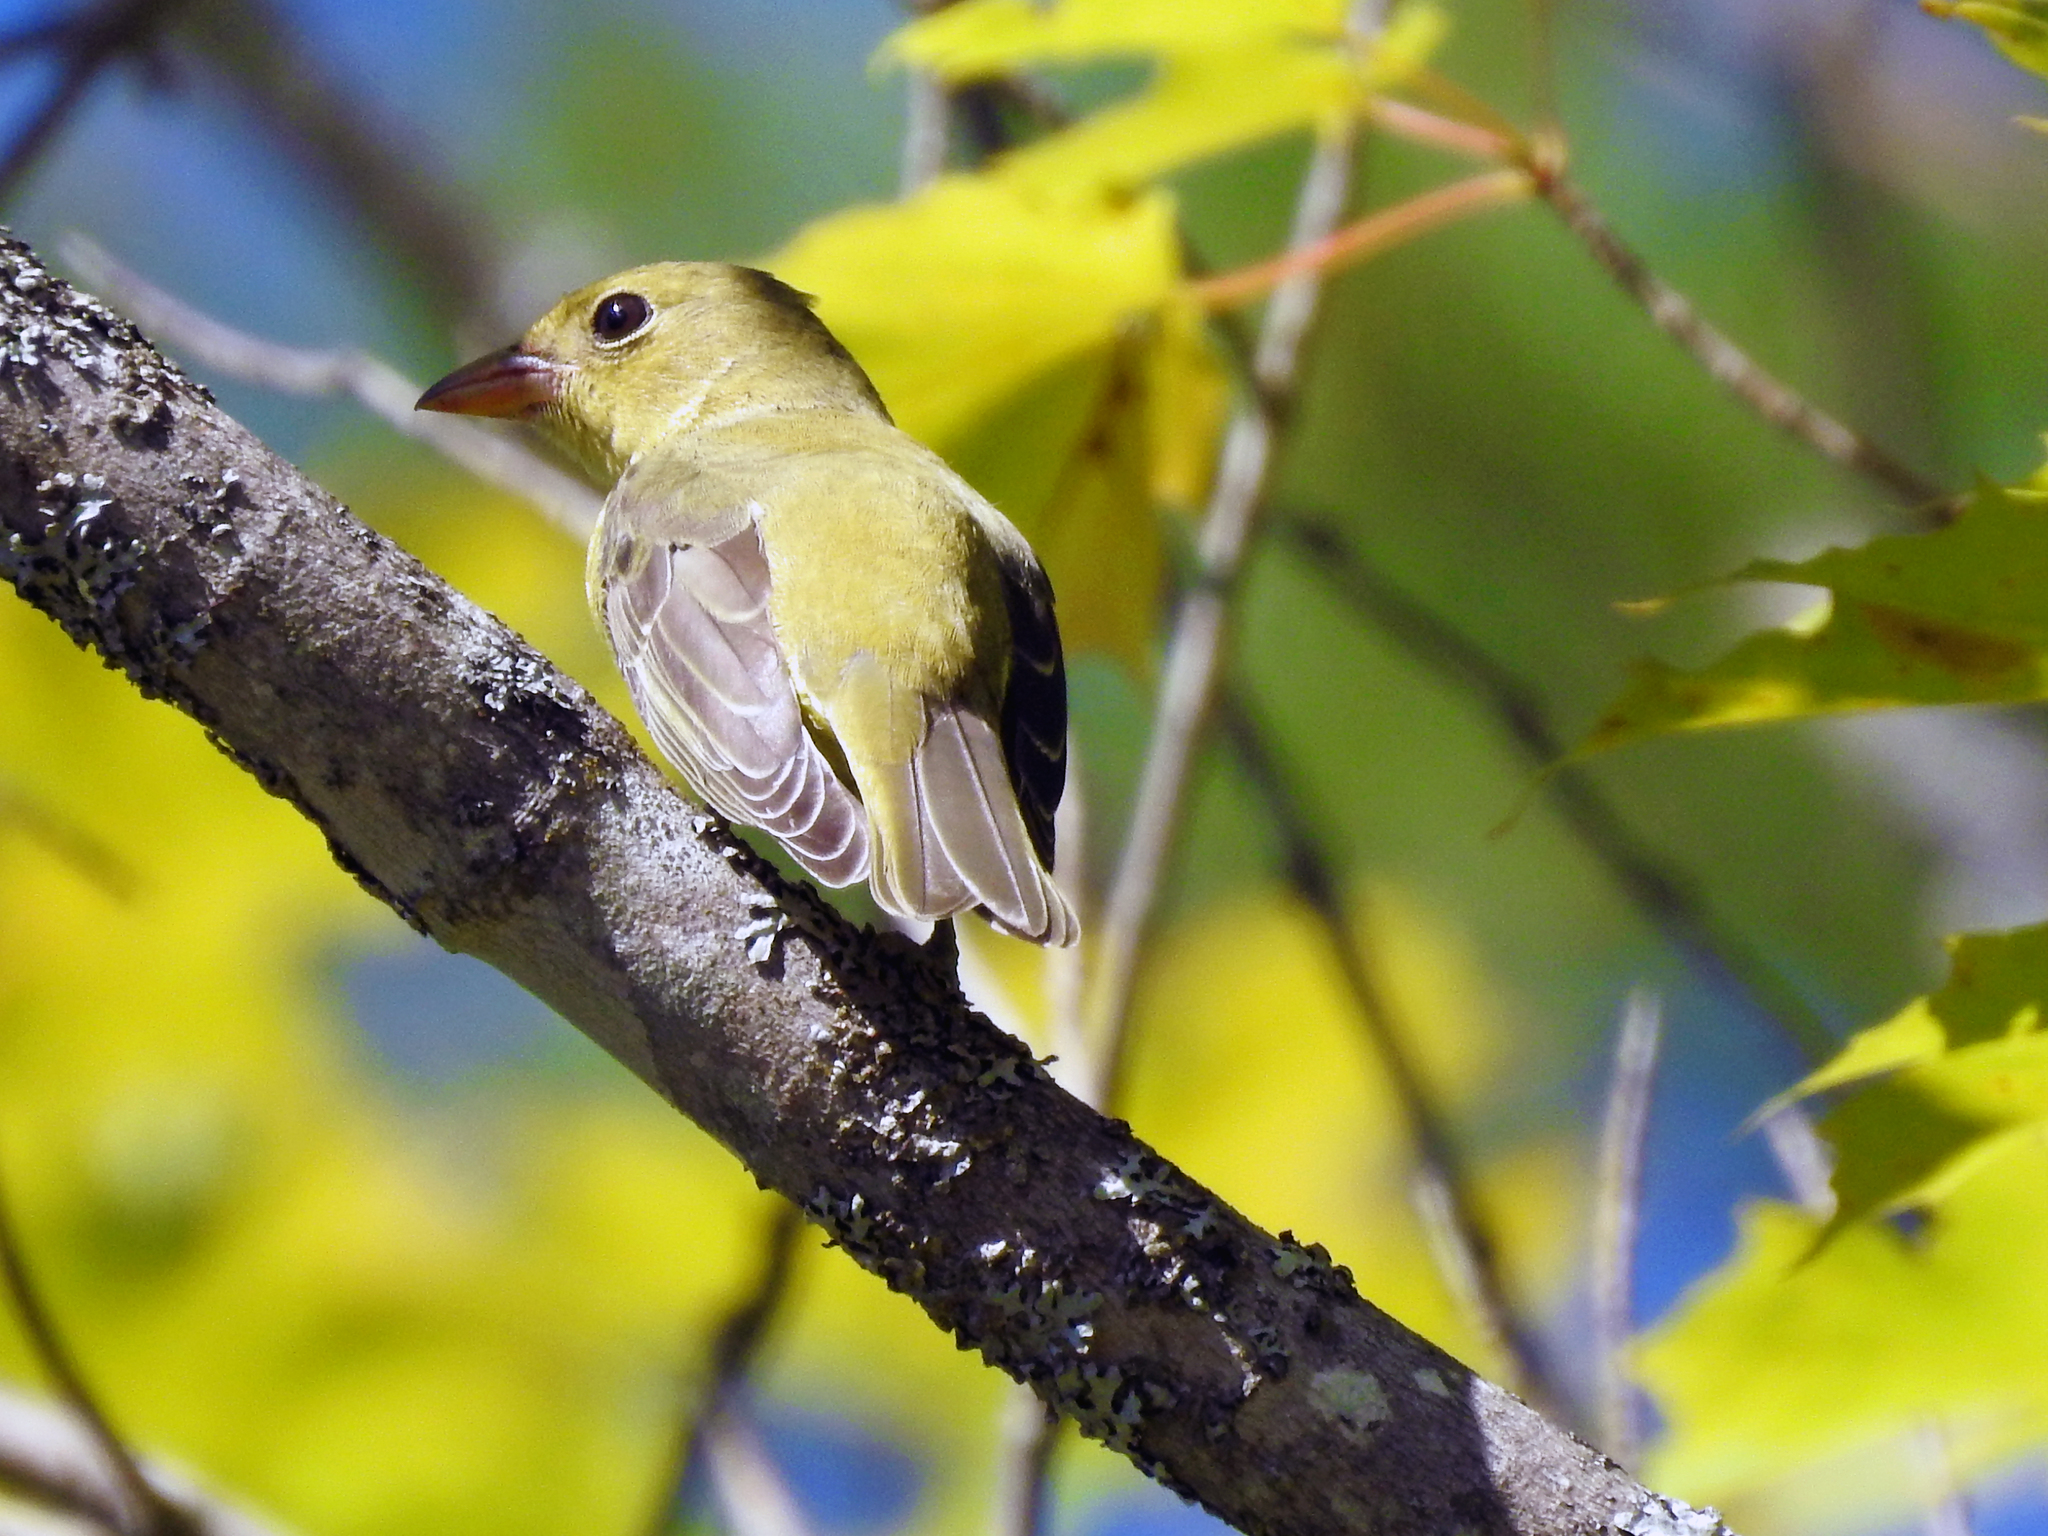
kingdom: Animalia
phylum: Chordata
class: Aves
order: Passeriformes
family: Cardinalidae
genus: Piranga
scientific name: Piranga olivacea
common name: Scarlet tanager
